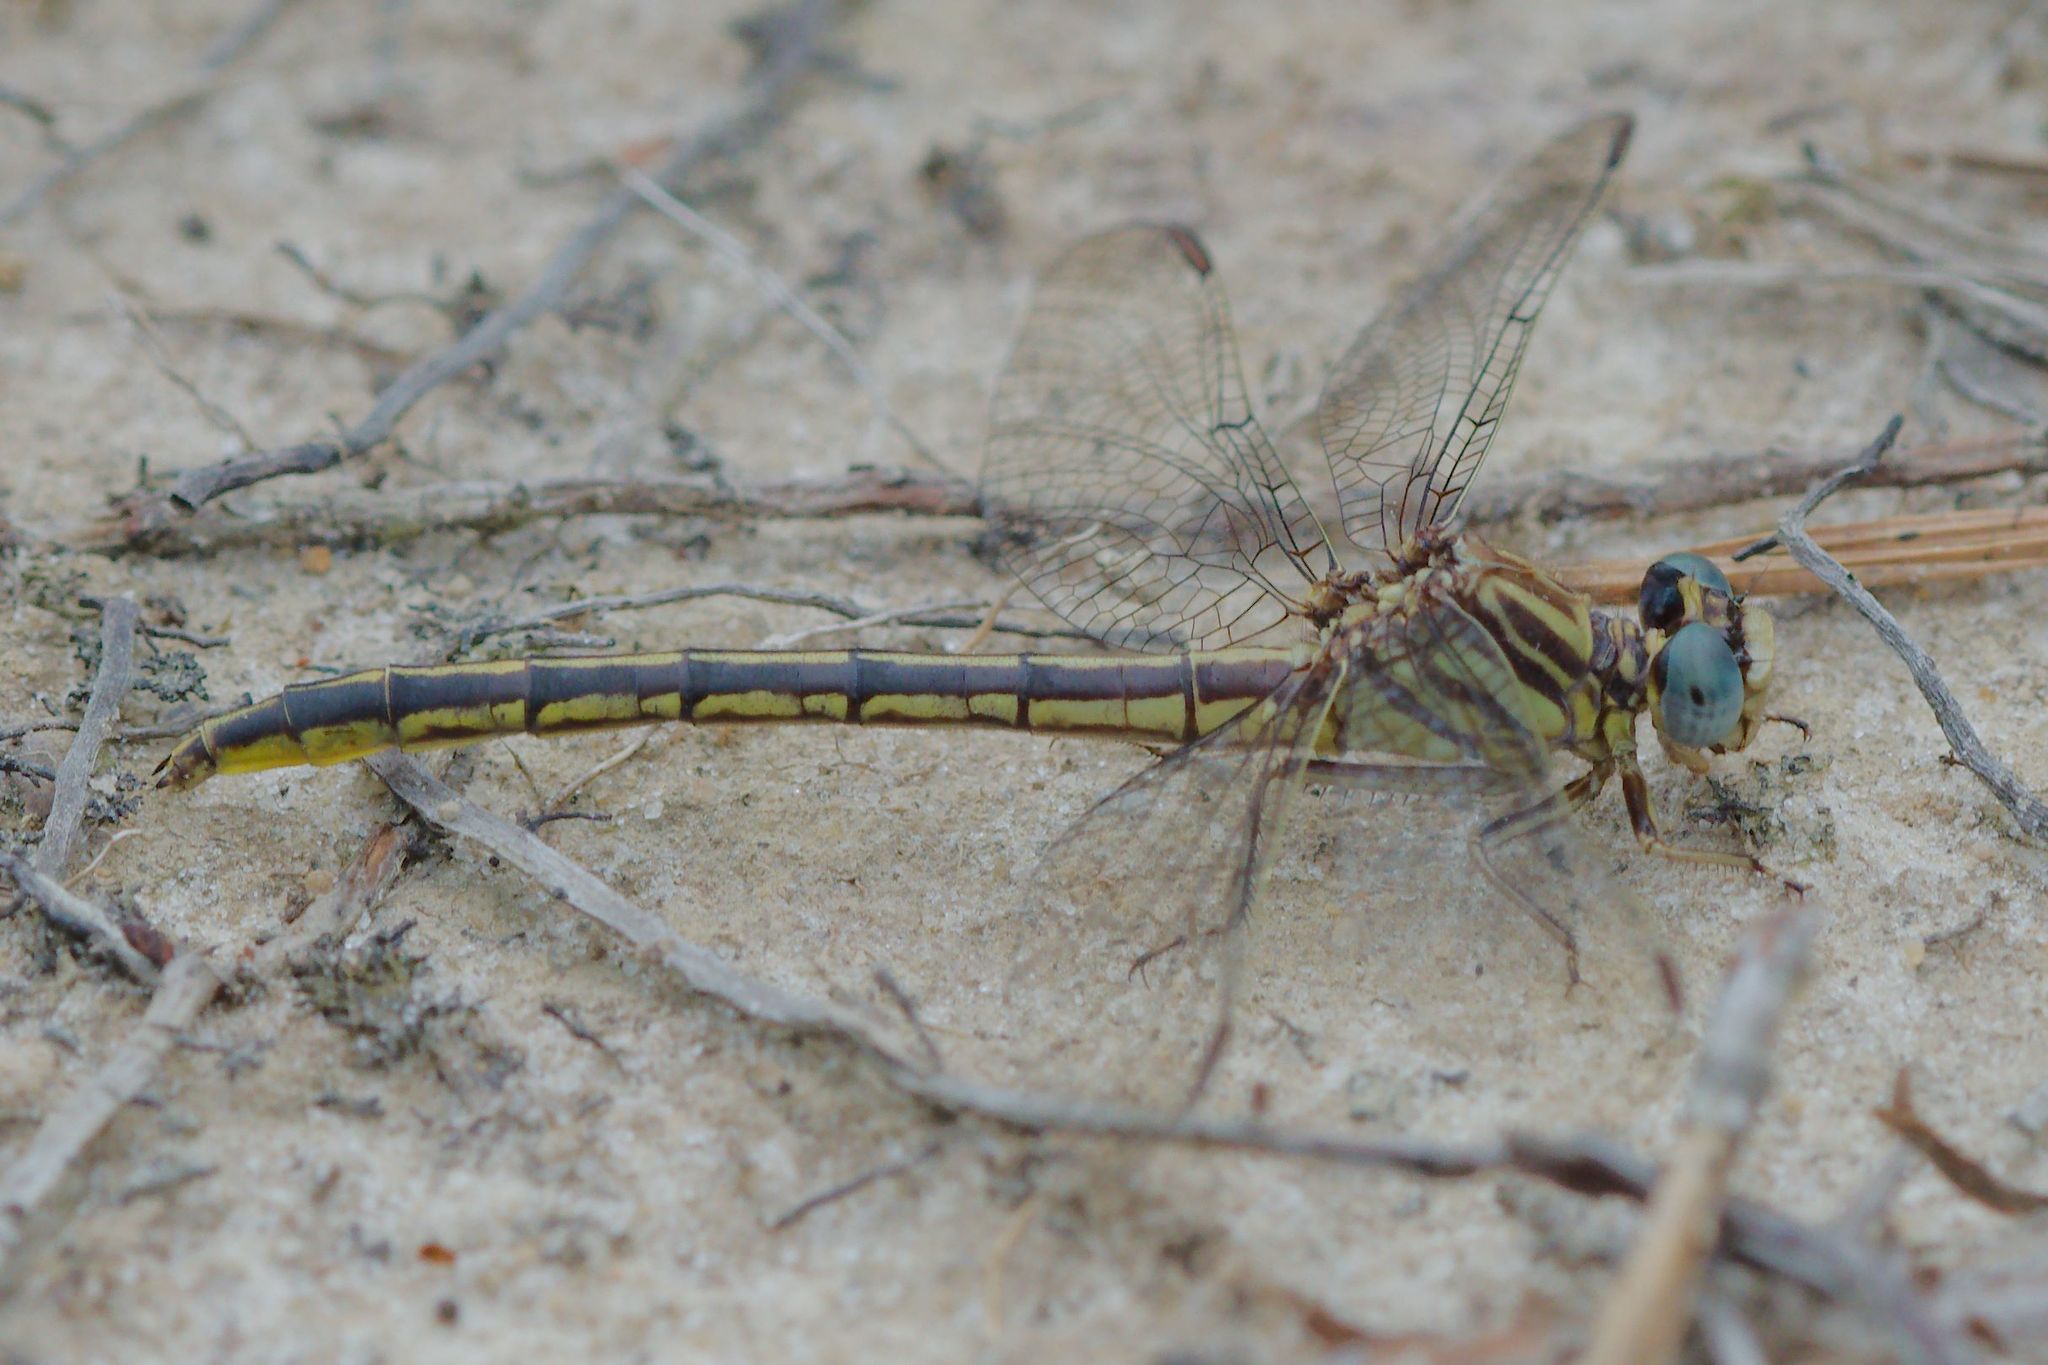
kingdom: Animalia
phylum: Arthropoda
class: Insecta
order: Odonata
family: Gomphidae
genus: Phanogomphus
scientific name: Phanogomphus hodgesi
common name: Hodges' clubtail
